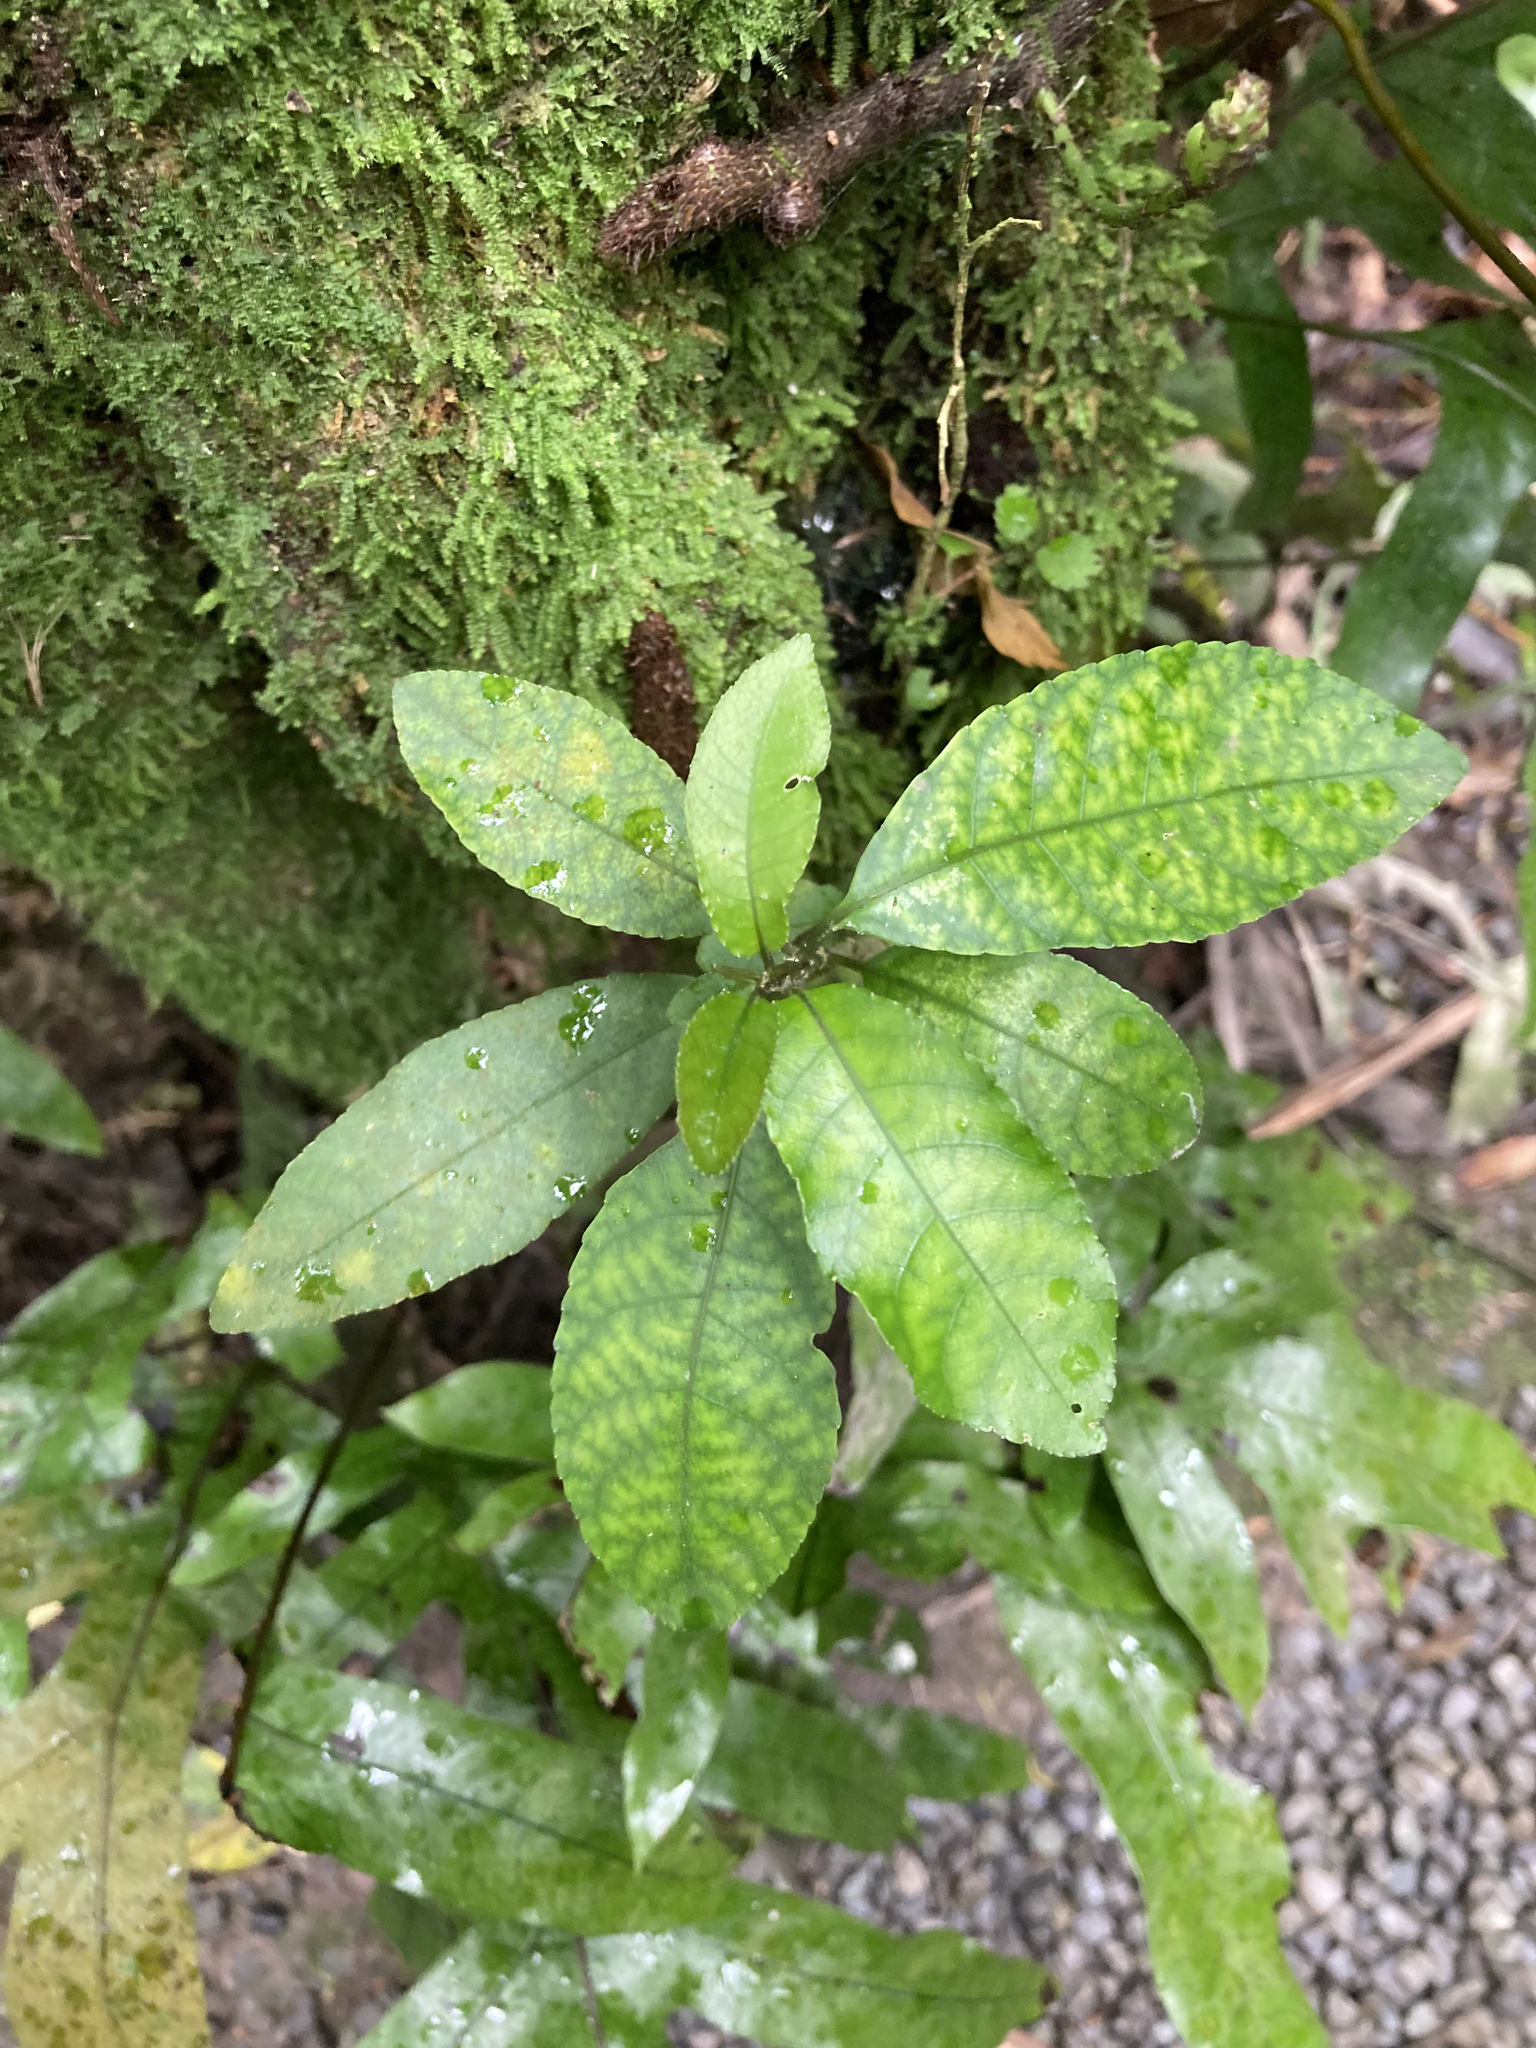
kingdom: Plantae
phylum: Tracheophyta
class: Magnoliopsida
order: Malpighiales
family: Violaceae
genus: Melicytus
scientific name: Melicytus ramiflorus
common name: Mahoe
